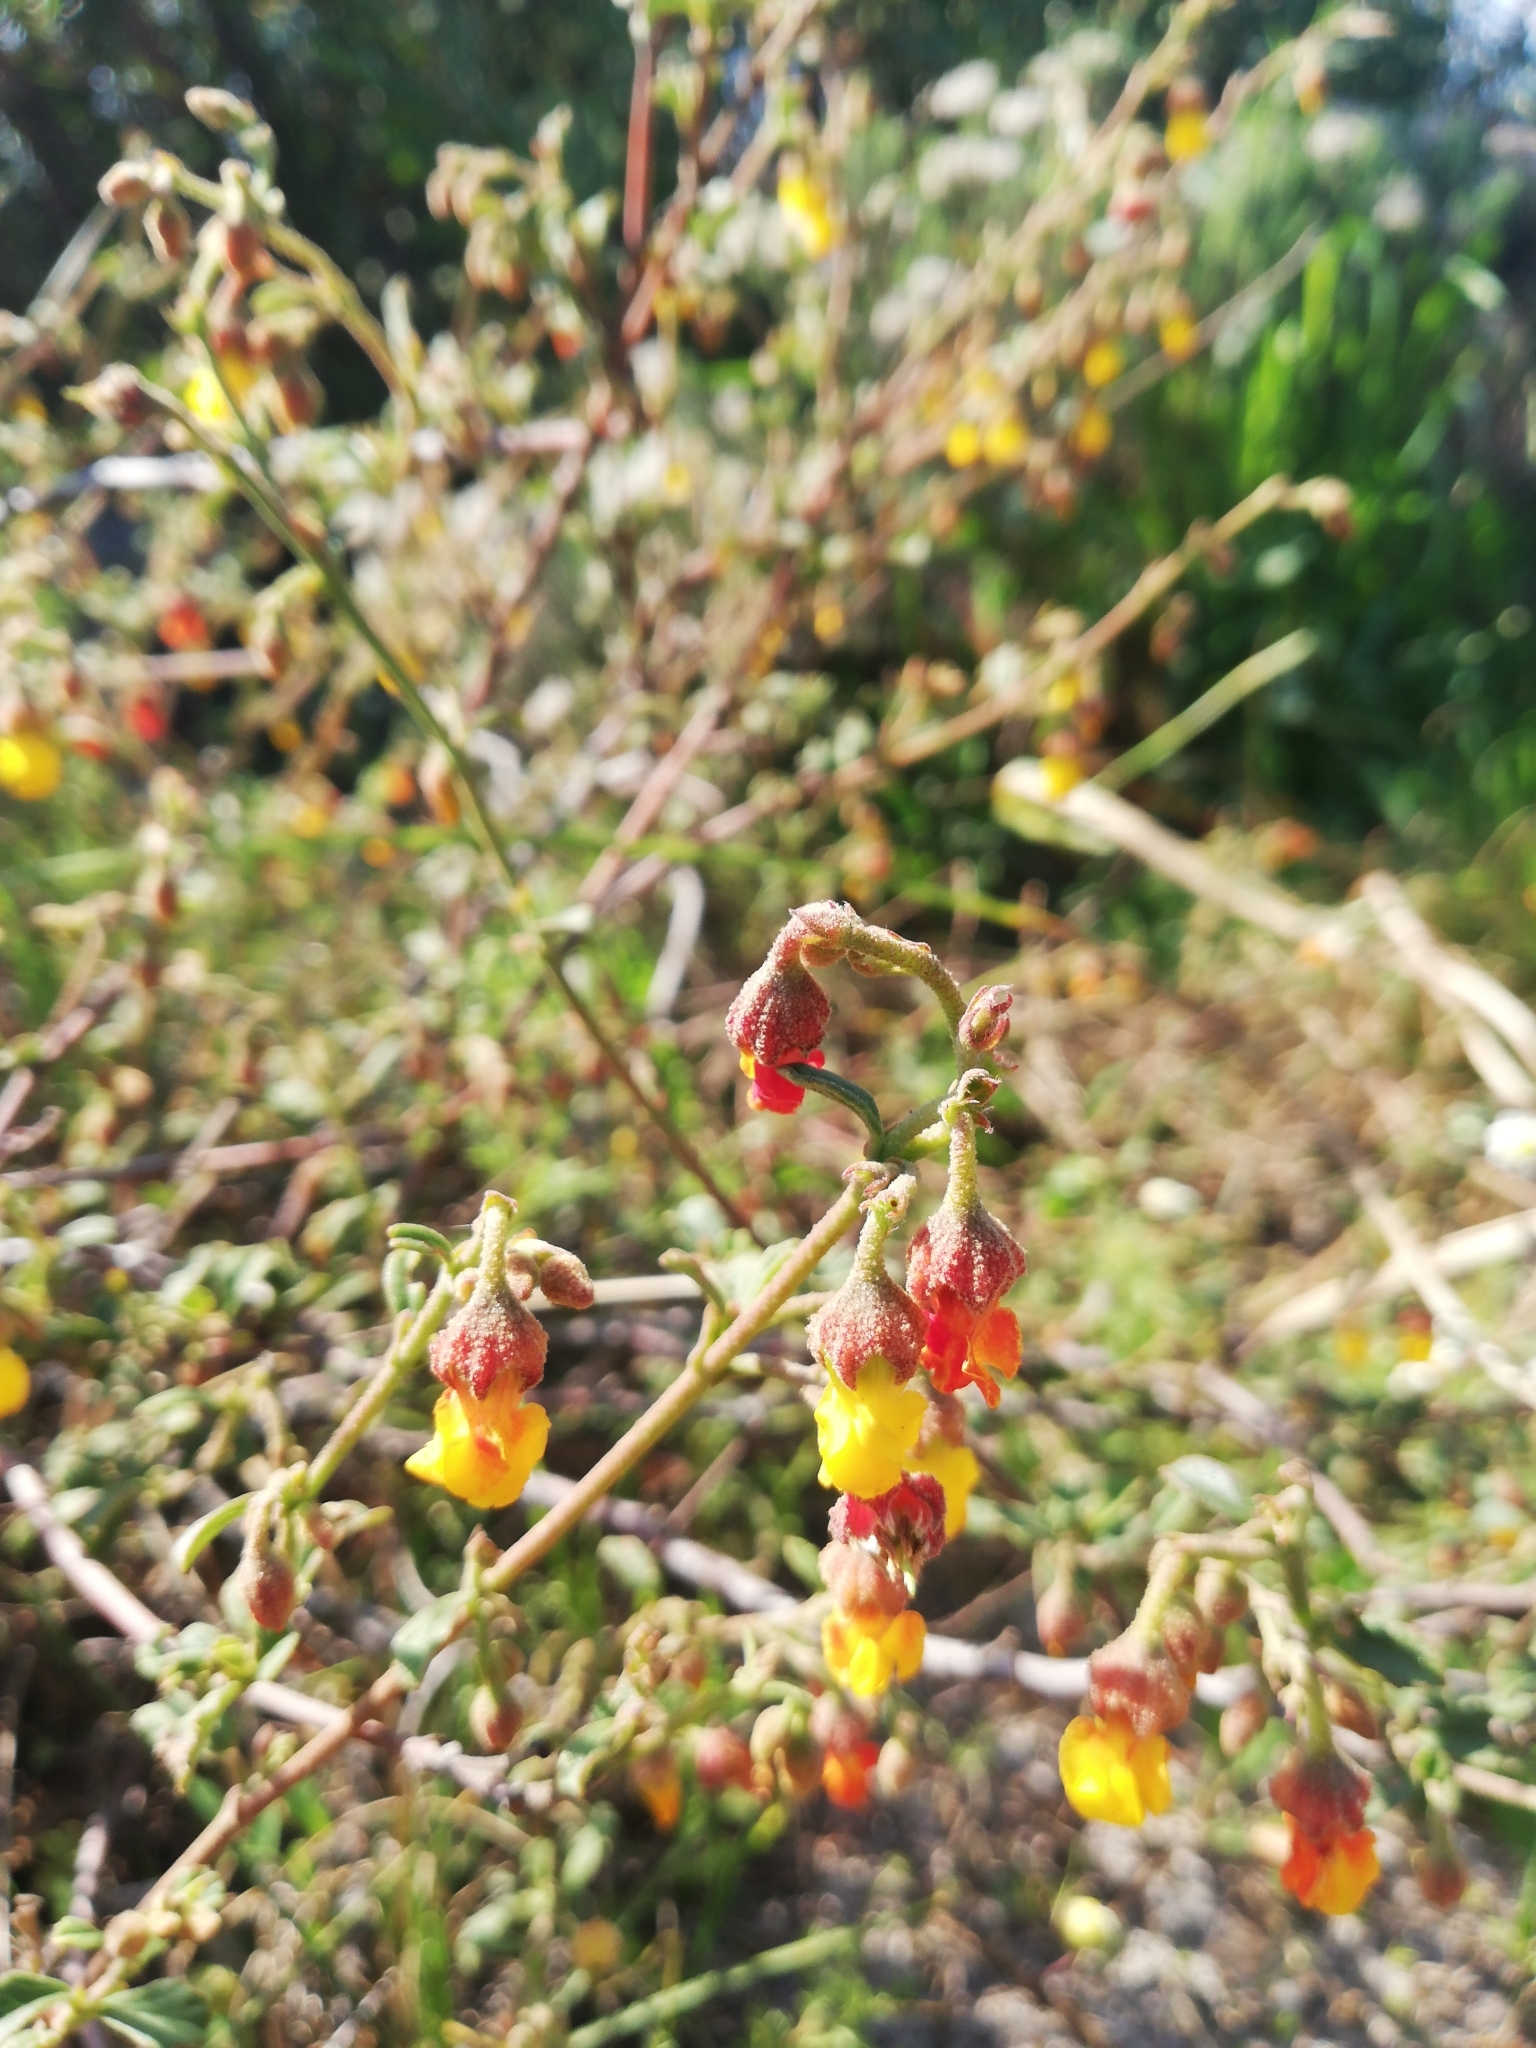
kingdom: Plantae
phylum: Tracheophyta
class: Magnoliopsida
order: Malvales
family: Malvaceae
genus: Hermannia
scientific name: Hermannia multiflora
